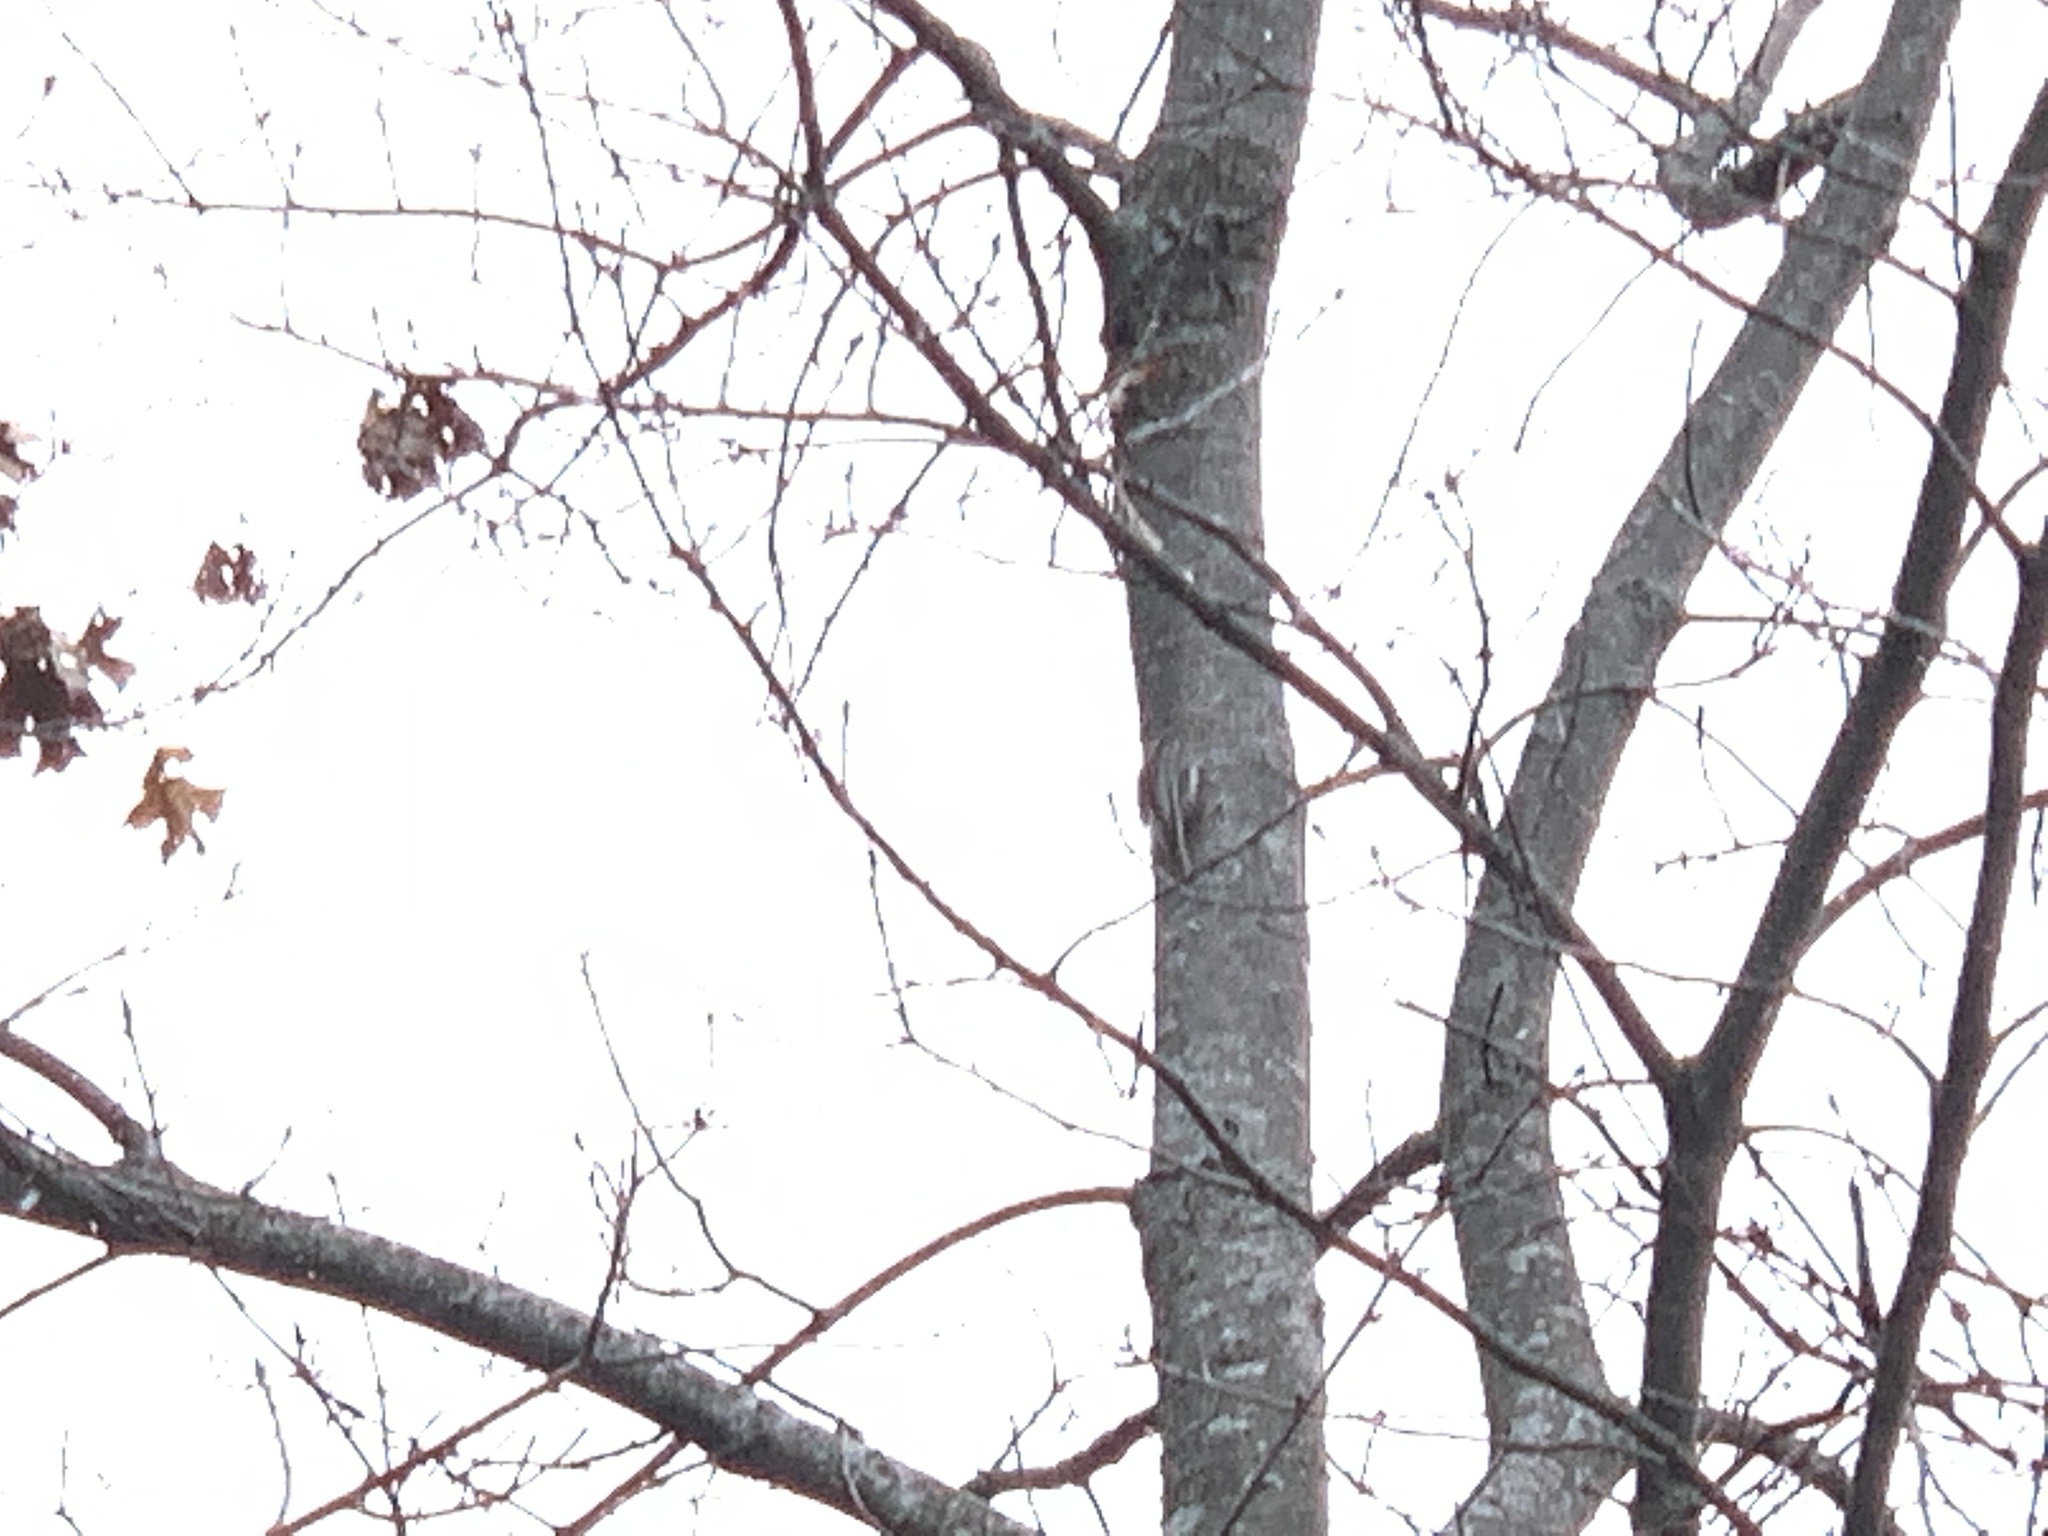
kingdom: Animalia
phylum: Chordata
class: Aves
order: Passeriformes
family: Certhiidae
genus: Certhia
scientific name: Certhia americana
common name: Brown creeper
